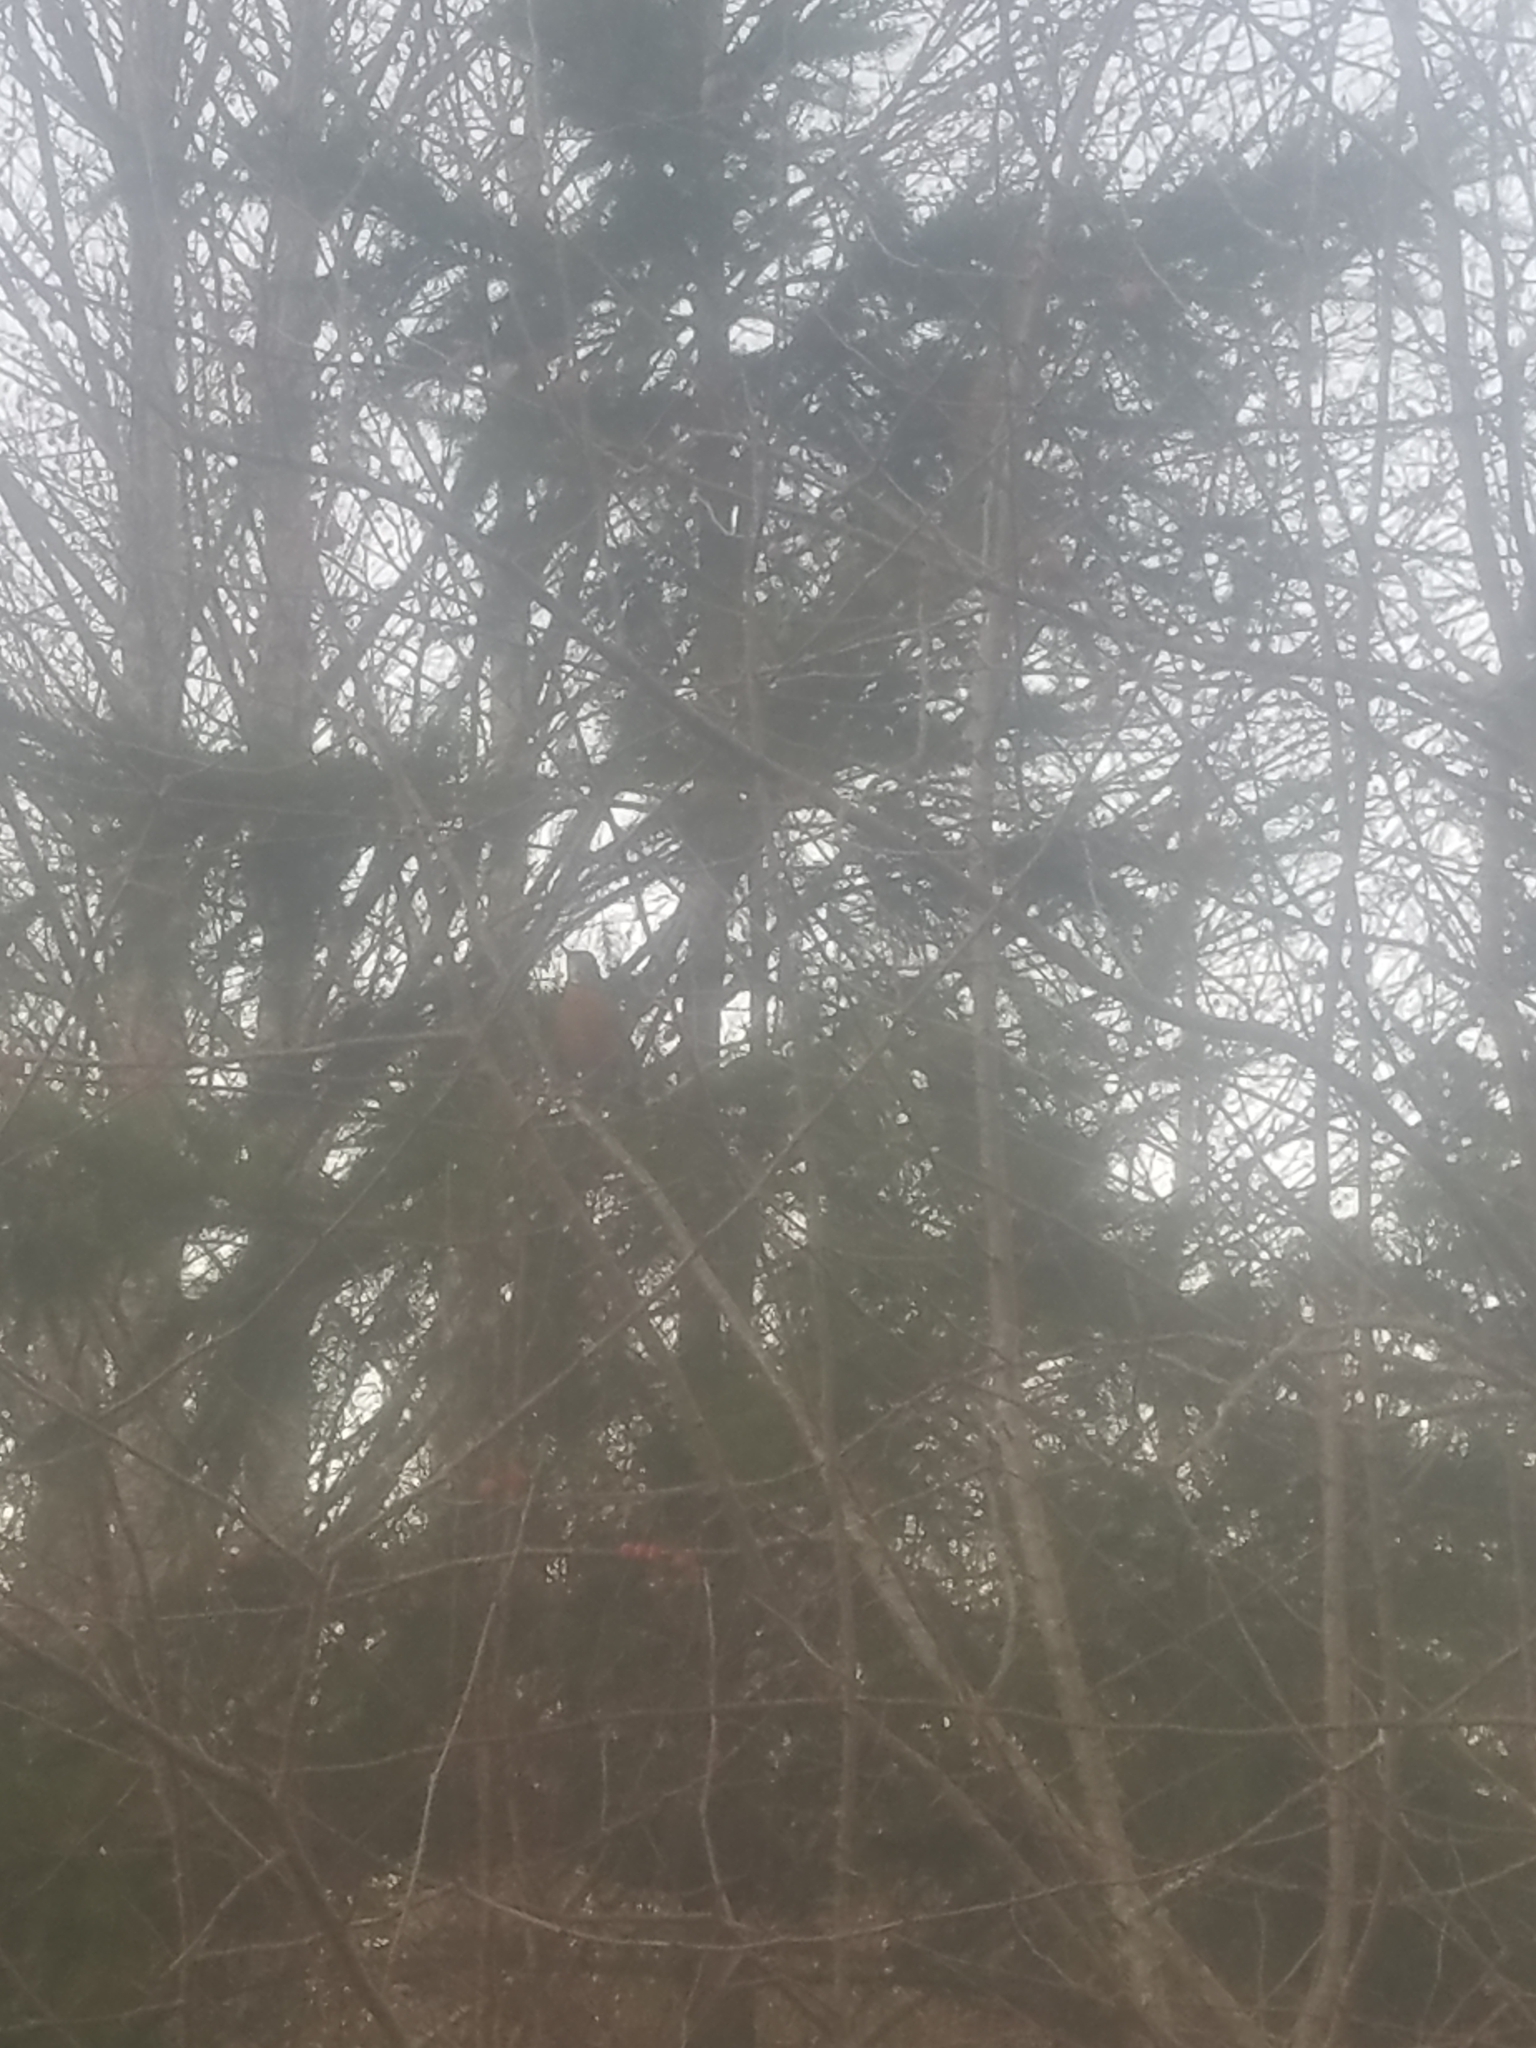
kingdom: Animalia
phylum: Chordata
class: Aves
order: Passeriformes
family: Turdidae
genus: Turdus
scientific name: Turdus migratorius
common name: American robin
